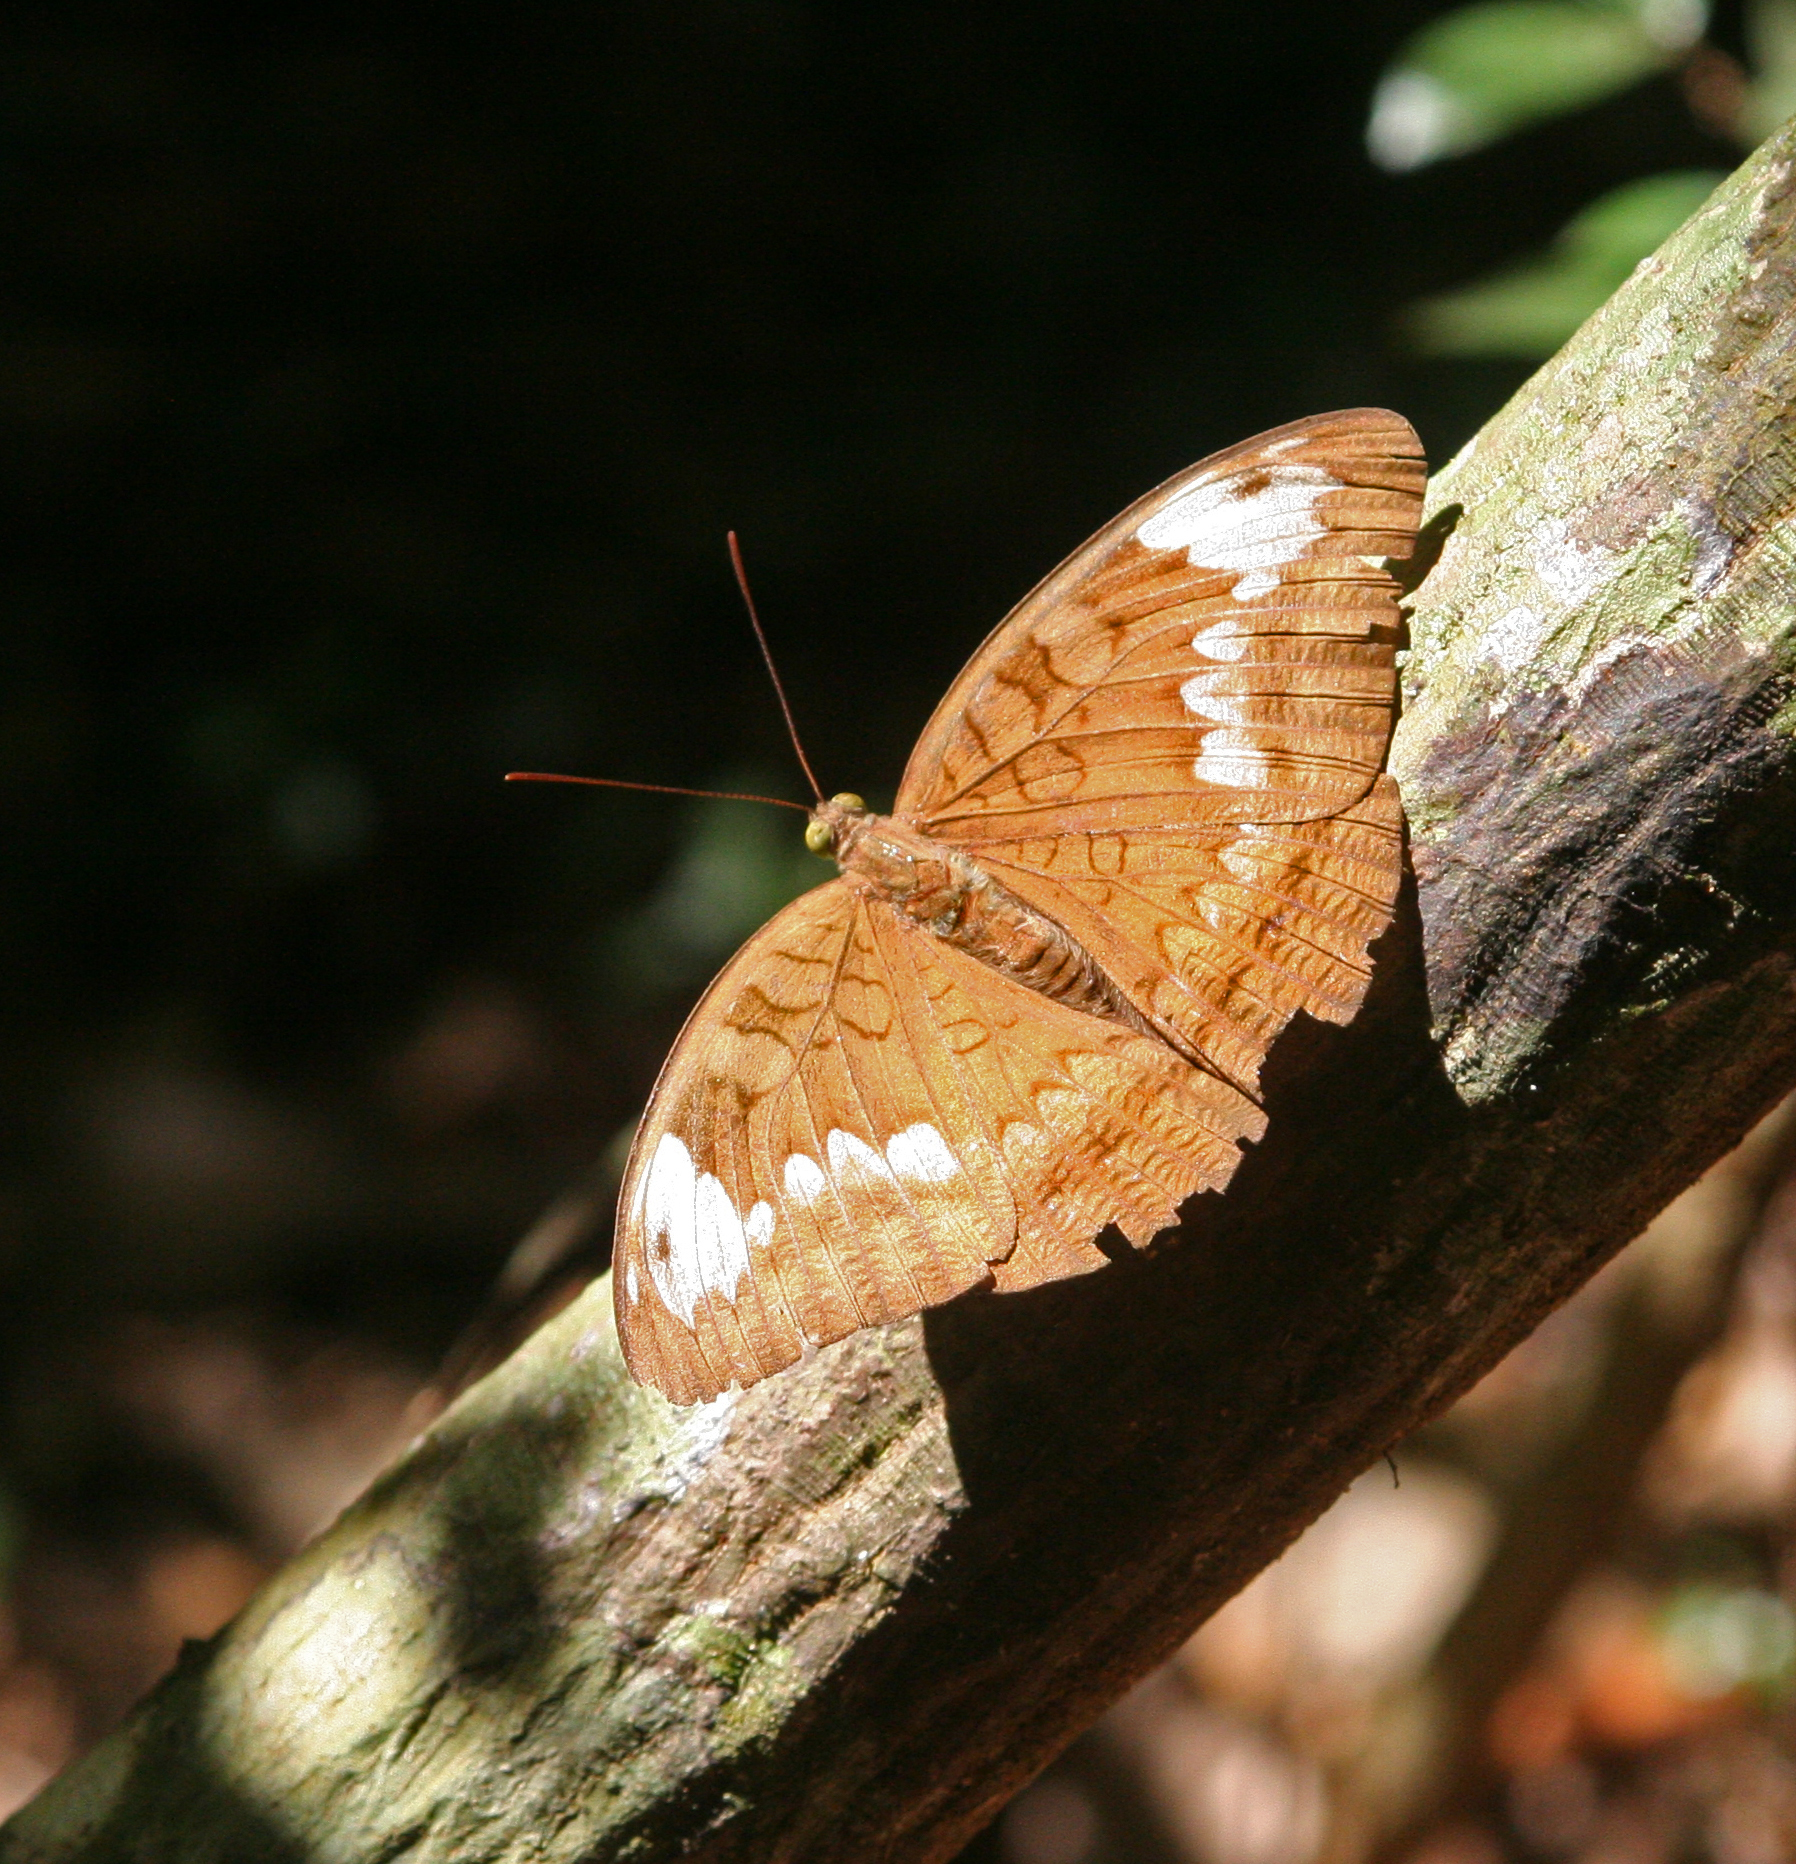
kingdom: Animalia
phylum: Arthropoda
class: Insecta
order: Lepidoptera
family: Nymphalidae
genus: Tanaecia
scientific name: Tanaecia julii
